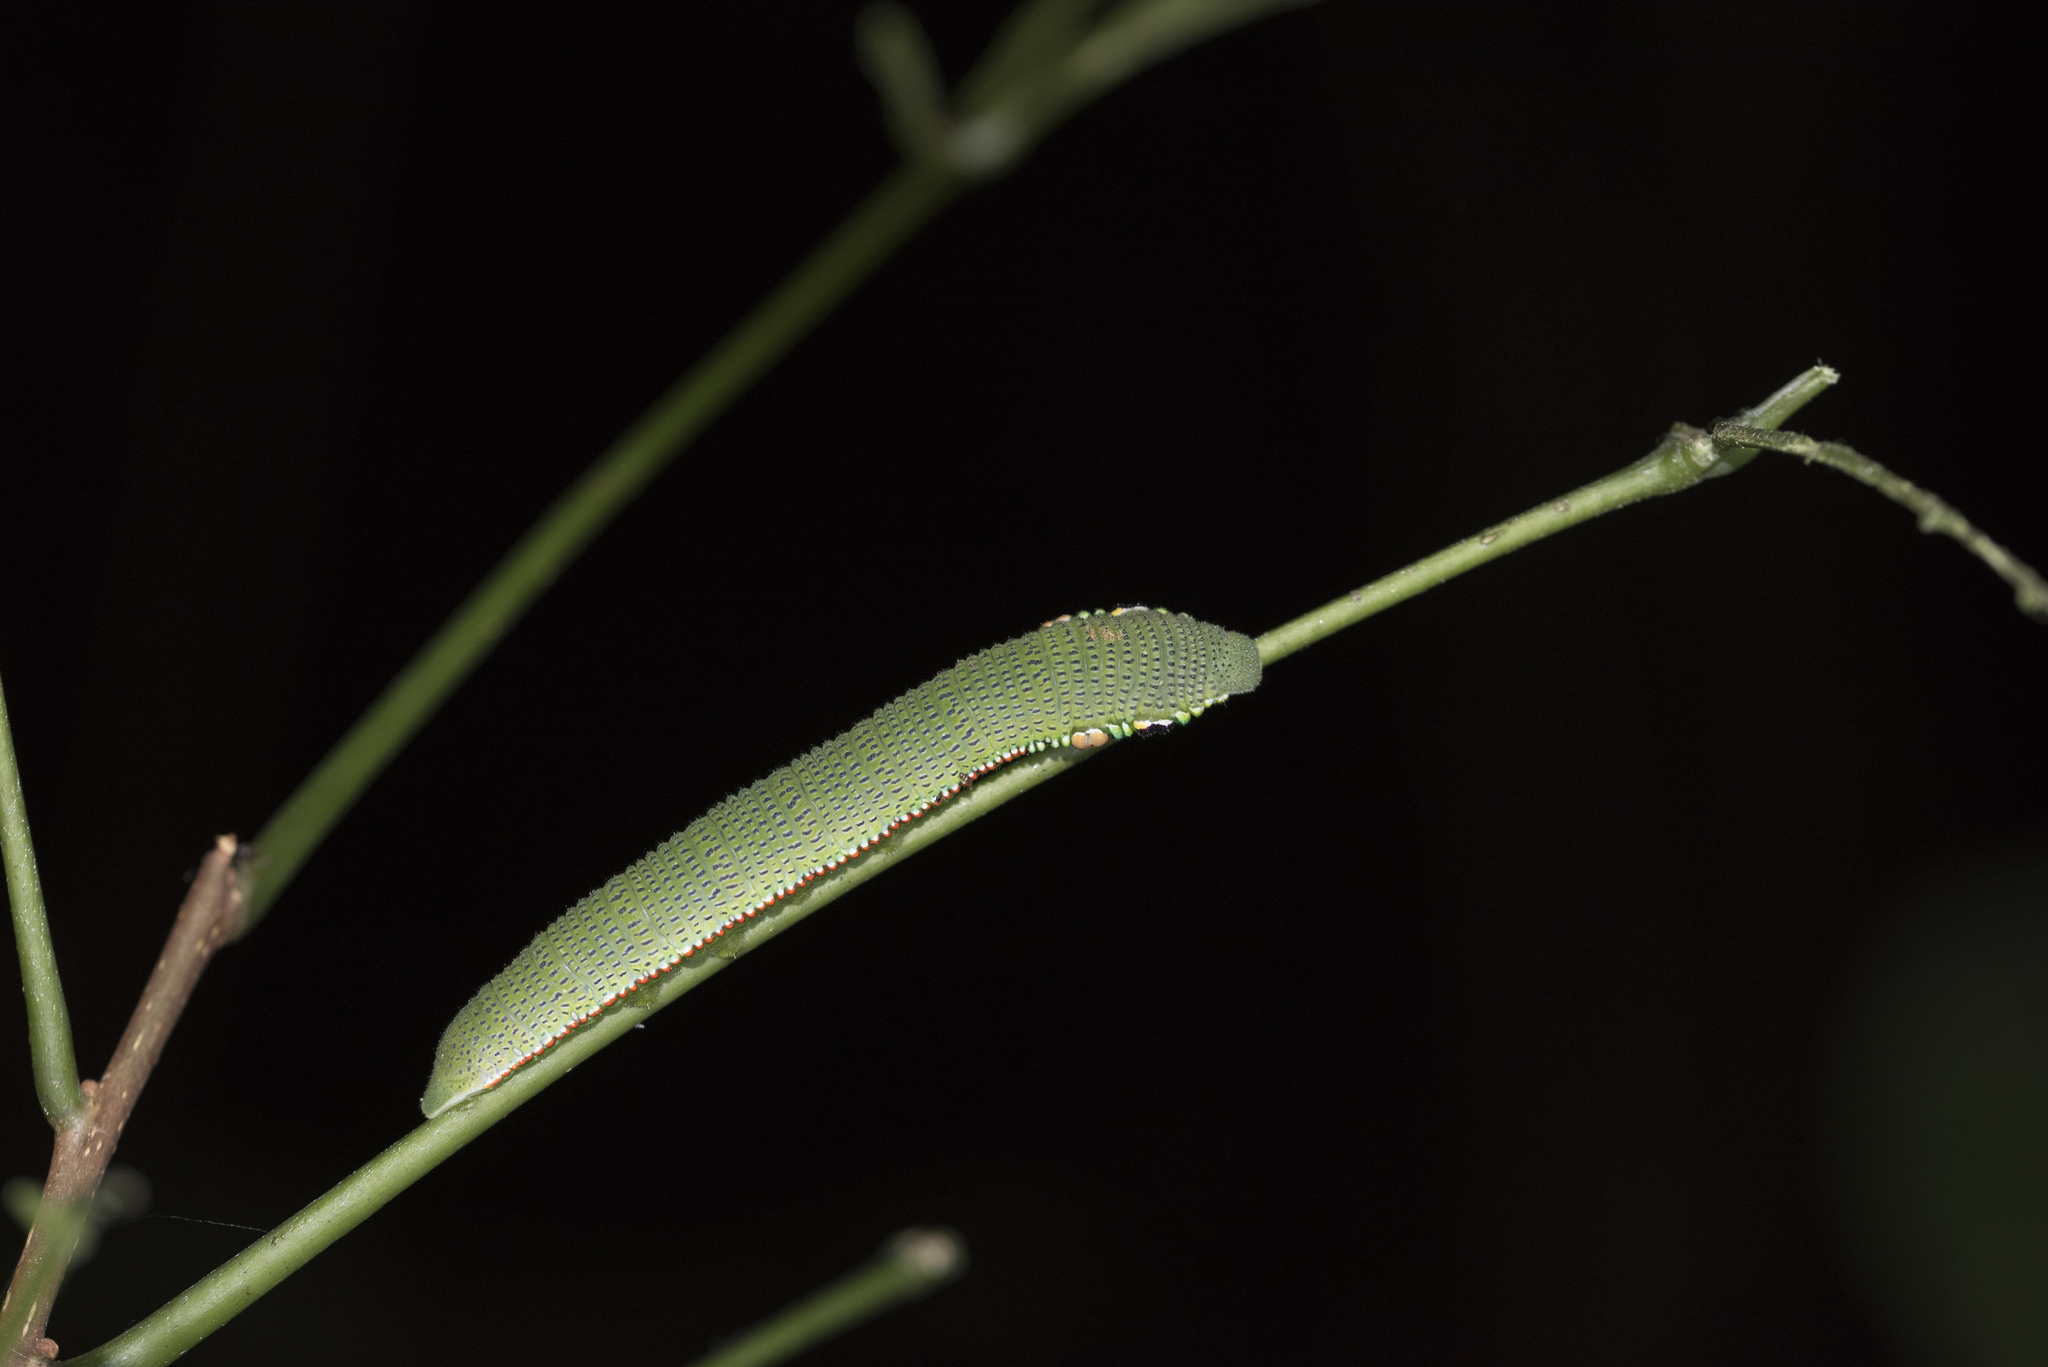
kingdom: Animalia
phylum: Arthropoda
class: Insecta
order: Lepidoptera
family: Pieridae
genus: Hebomoia
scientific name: Hebomoia glaucippe
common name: Great orange tip
